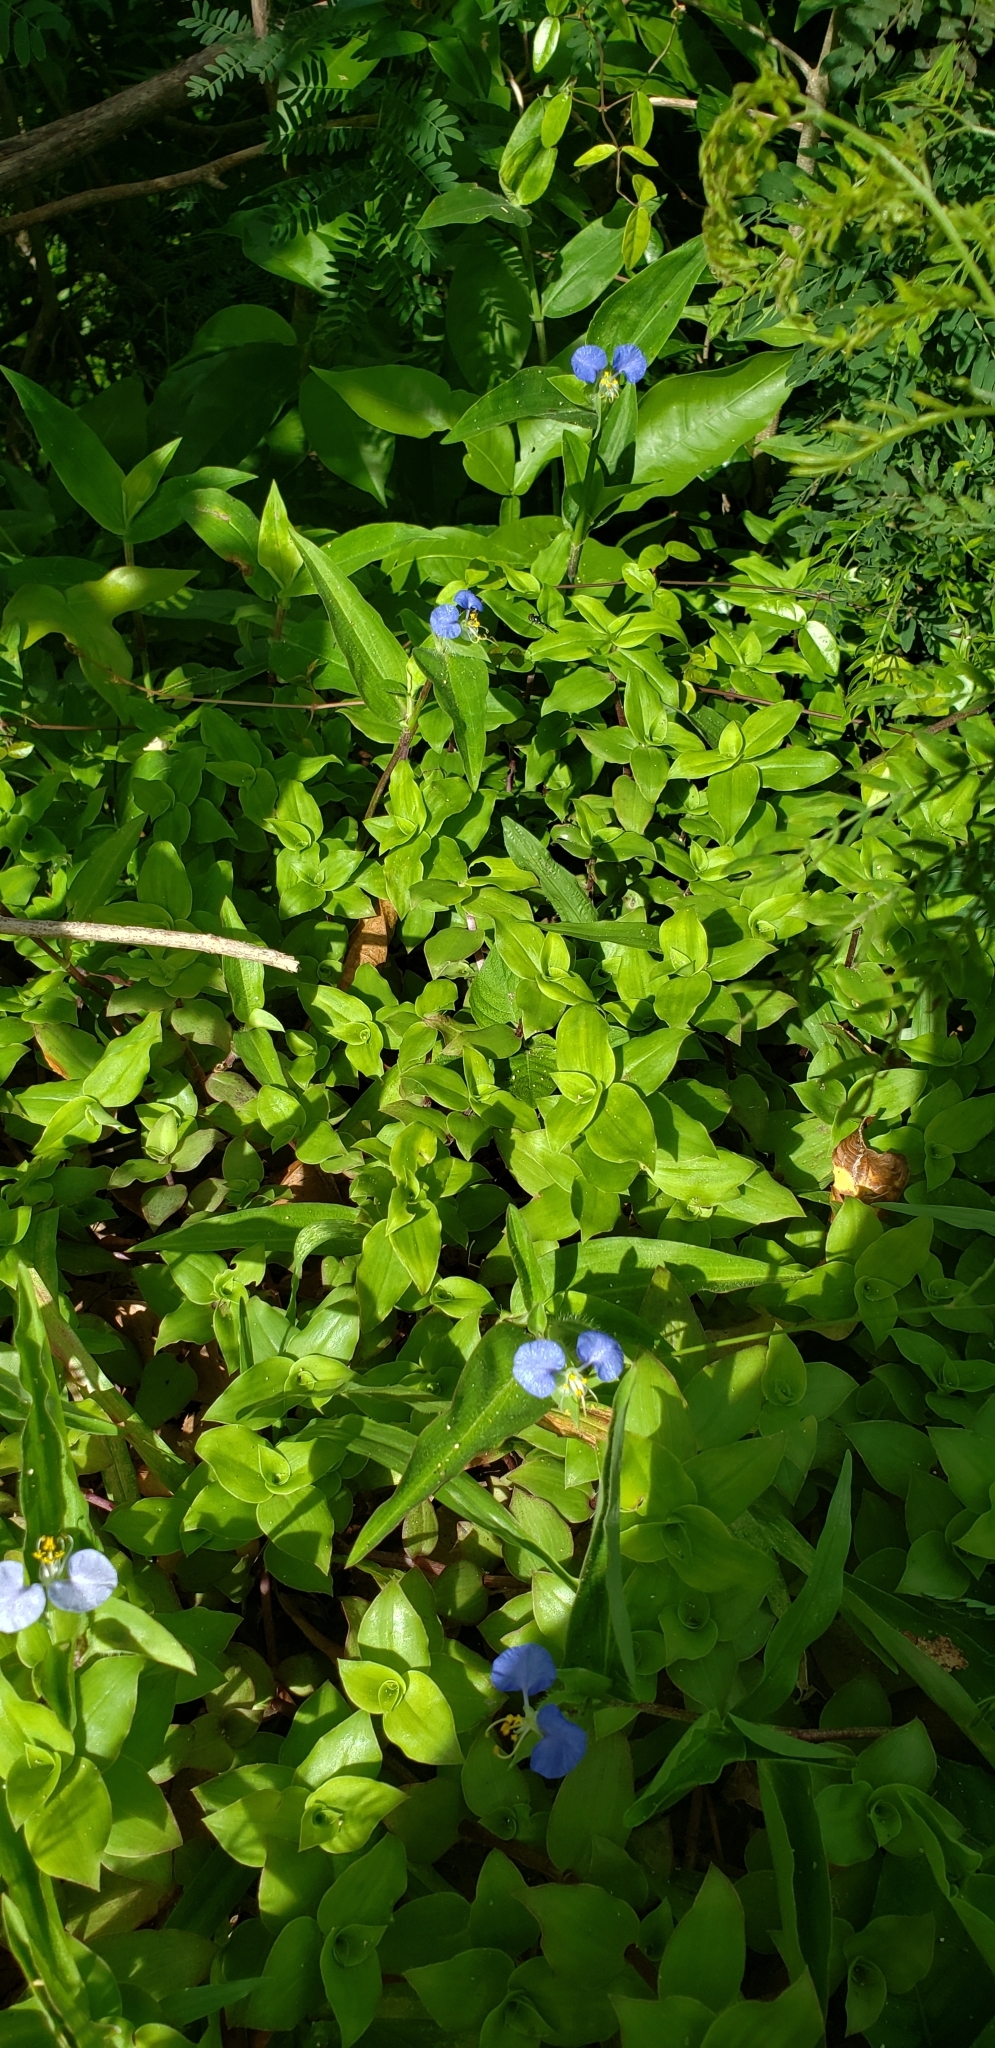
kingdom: Plantae
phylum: Tracheophyta
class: Liliopsida
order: Commelinales
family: Commelinaceae
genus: Commelina
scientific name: Commelina erecta
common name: Blousel blommetjie
